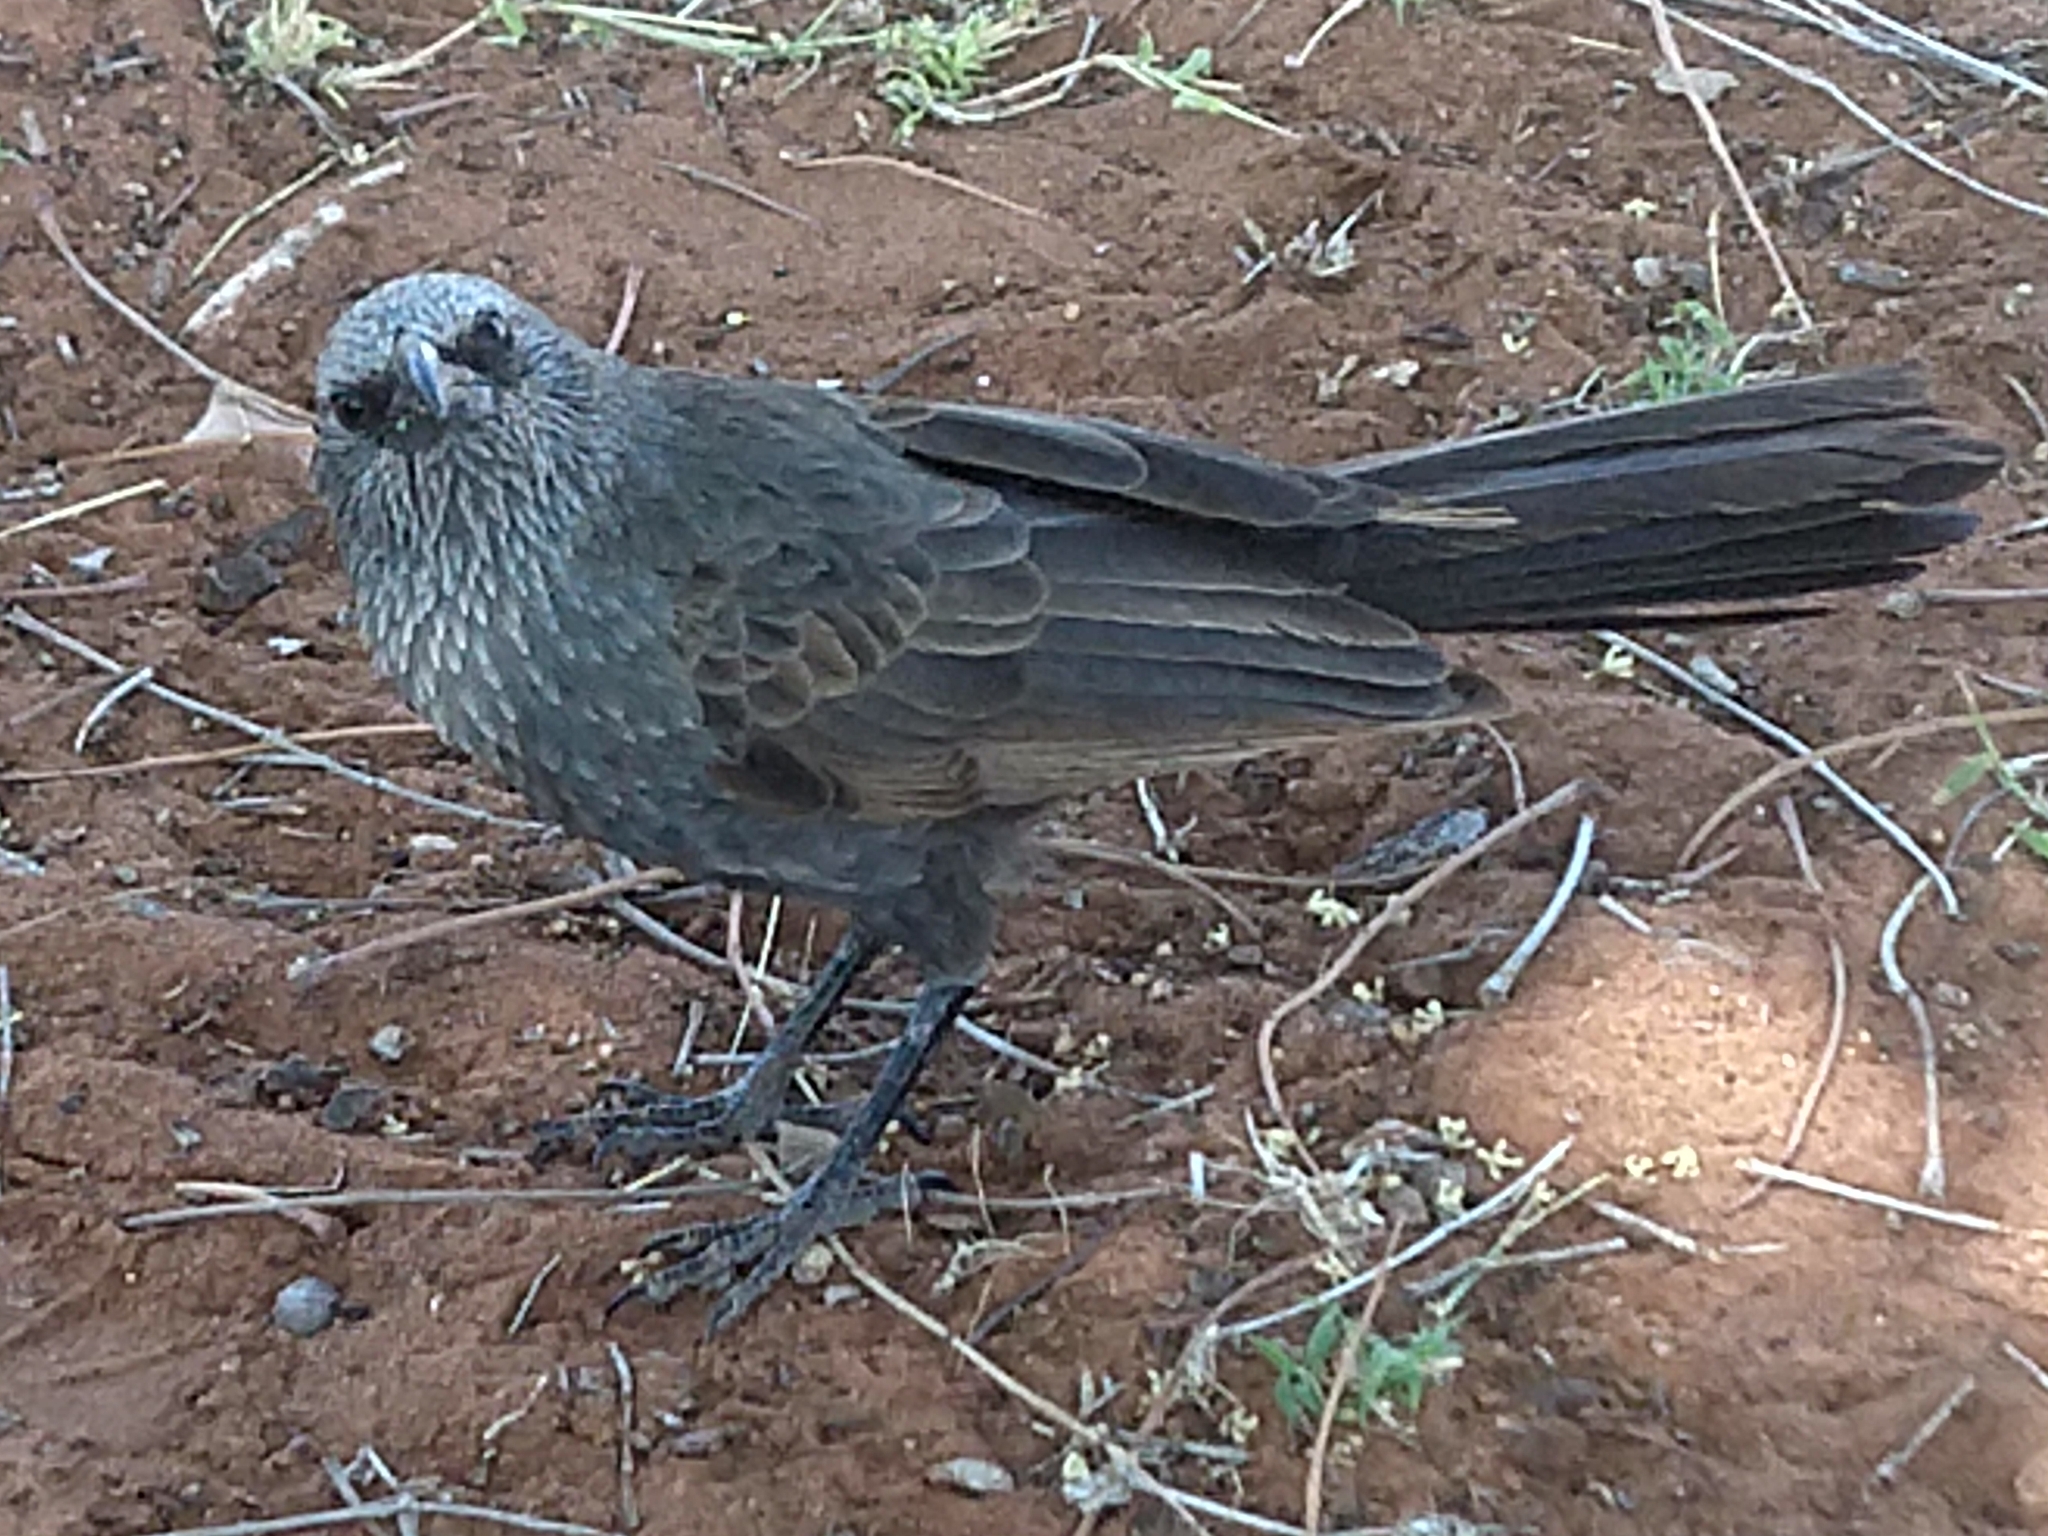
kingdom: Animalia
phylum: Chordata
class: Aves
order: Passeriformes
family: Corcoracidae
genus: Struthidea
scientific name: Struthidea cinerea
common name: Apostlebird
